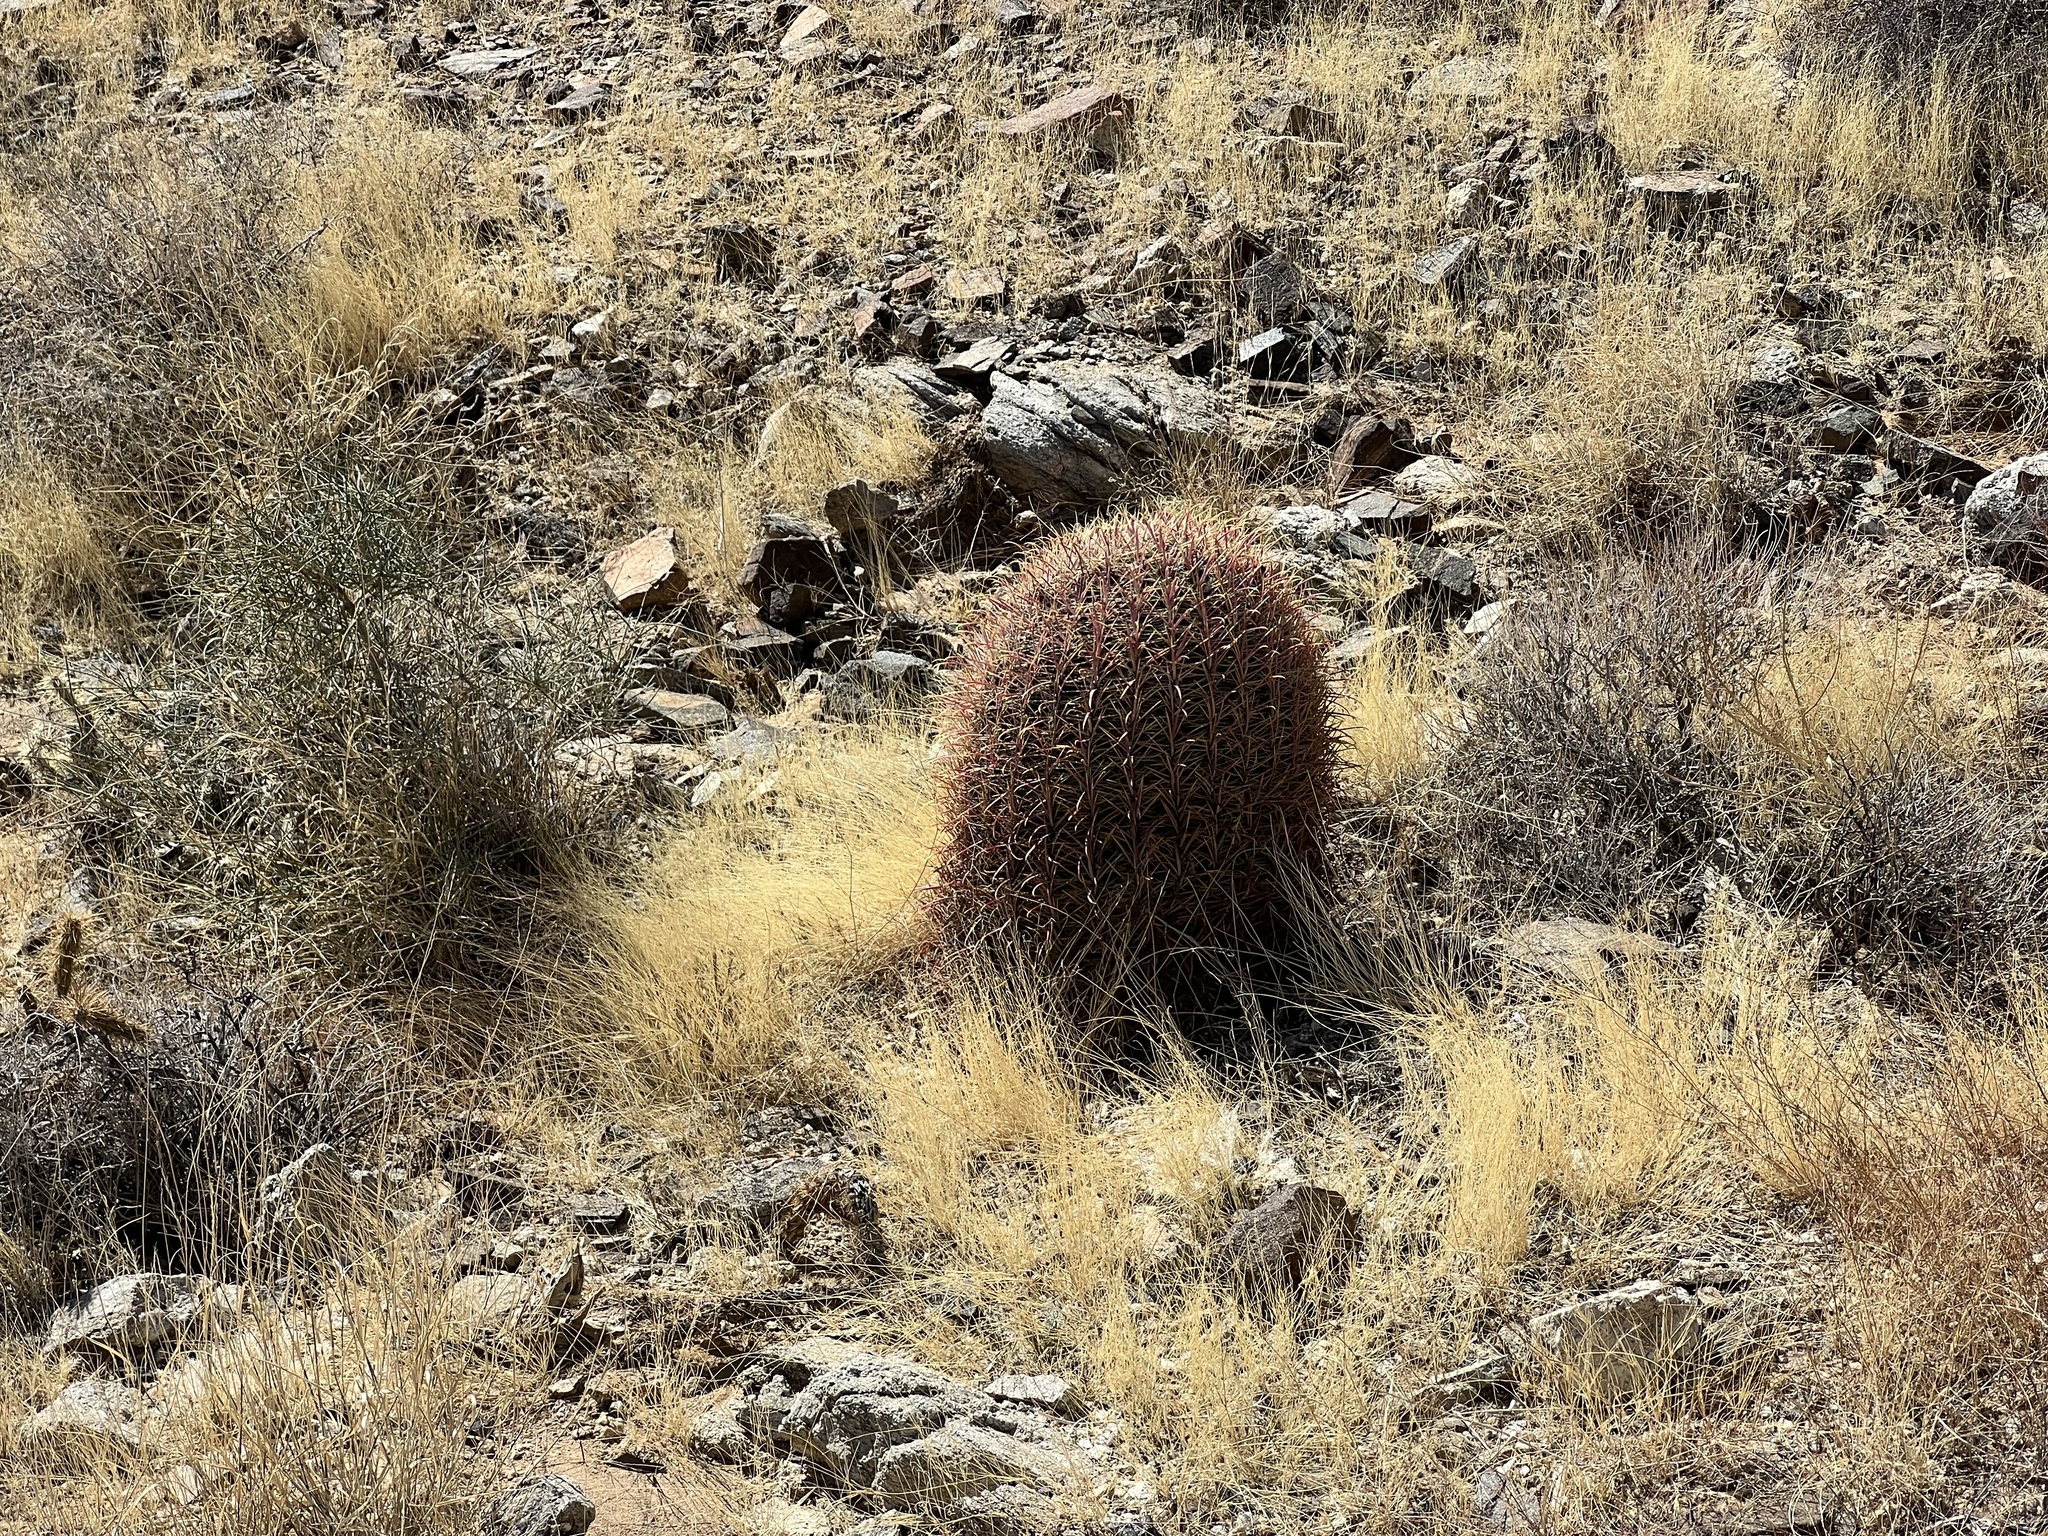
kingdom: Plantae
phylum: Tracheophyta
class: Magnoliopsida
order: Caryophyllales
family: Cactaceae
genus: Ferocactus
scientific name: Ferocactus cylindraceus
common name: California barrel cactus
